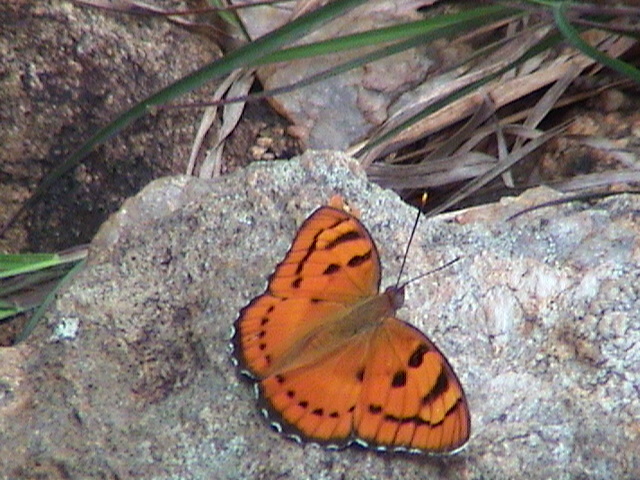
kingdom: Animalia
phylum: Arthropoda
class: Insecta
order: Lepidoptera
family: Nymphalidae
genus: Euthalia
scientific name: Euthalia nais
